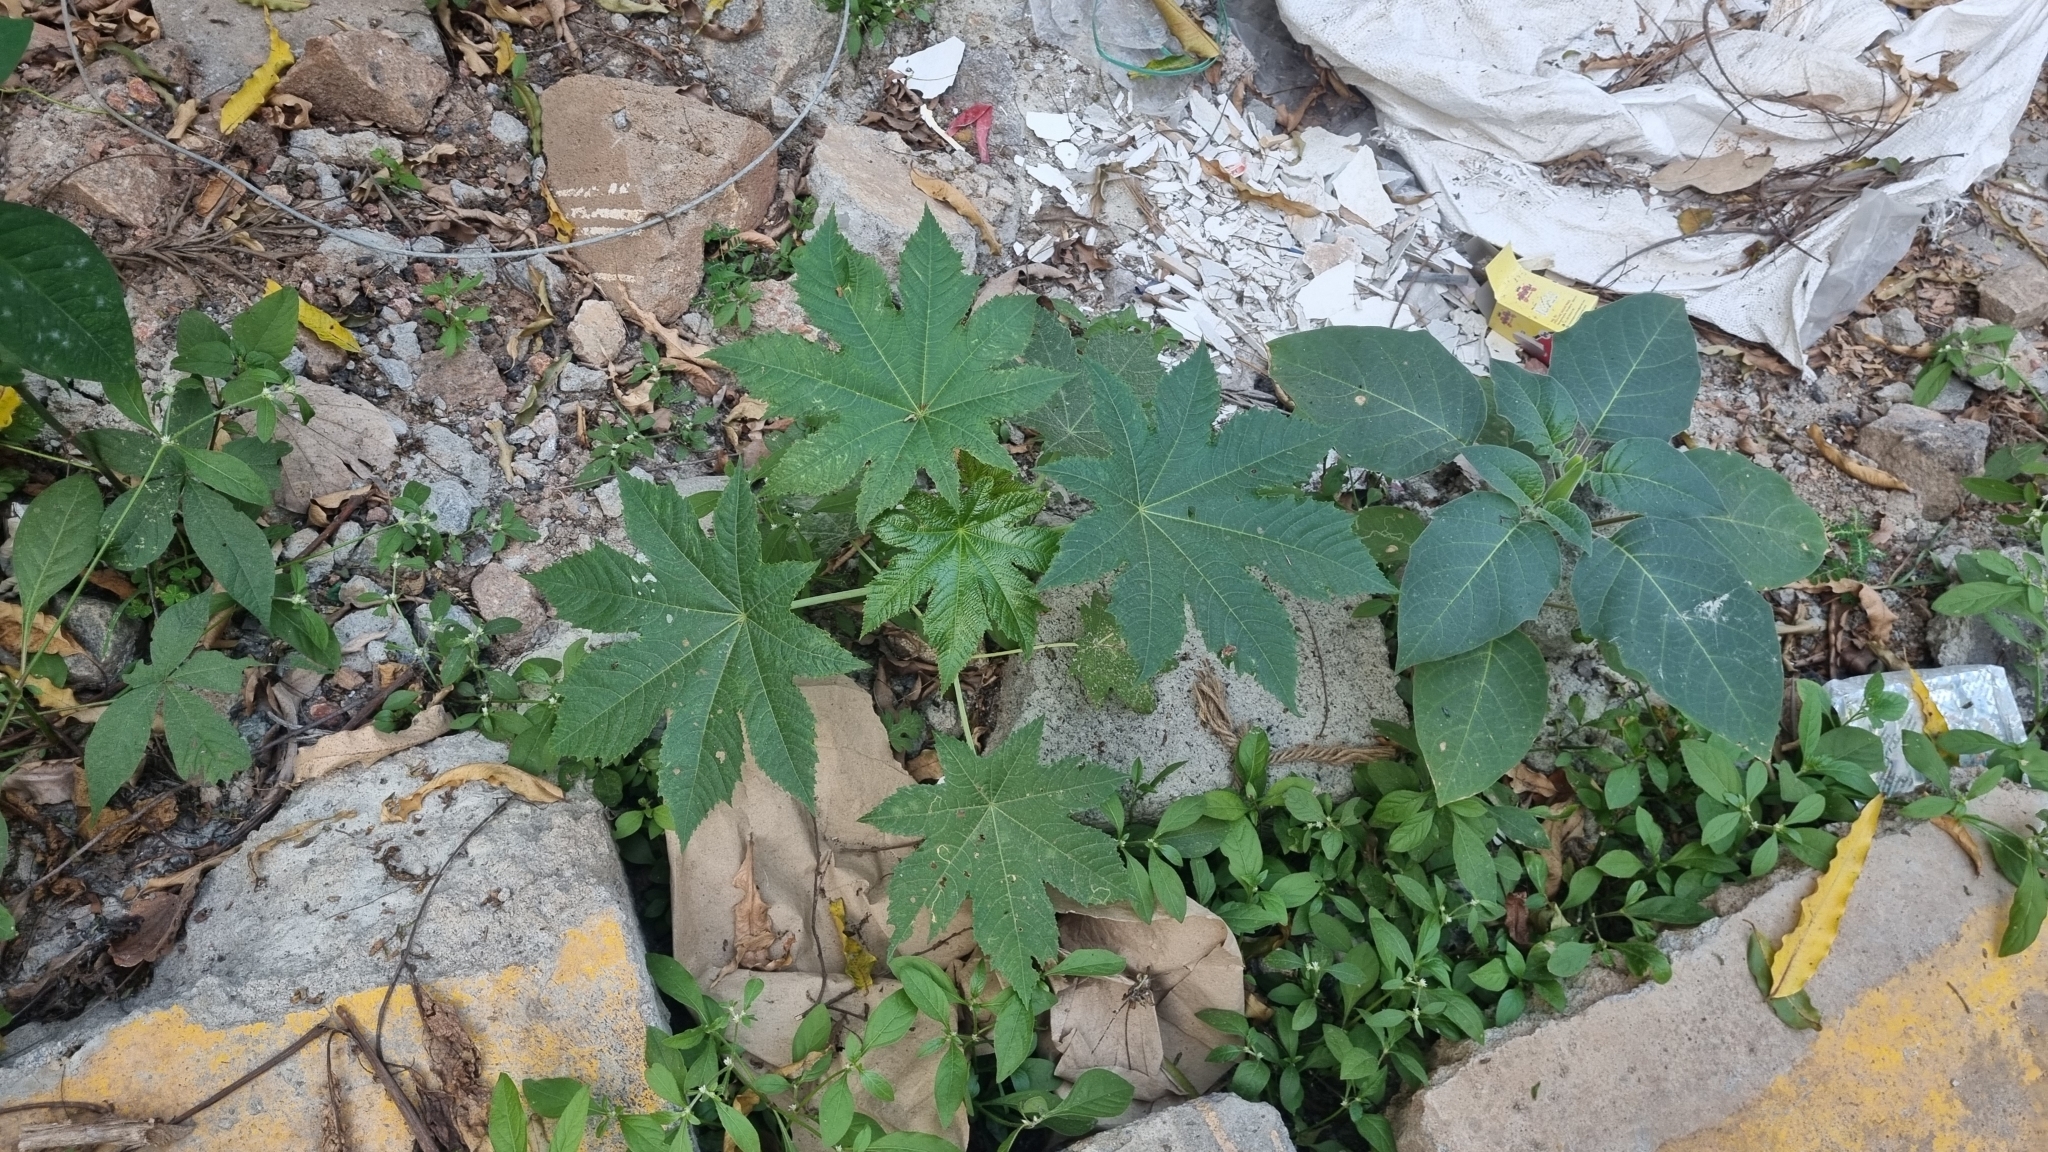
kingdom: Plantae
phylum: Tracheophyta
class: Magnoliopsida
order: Malpighiales
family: Euphorbiaceae
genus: Ricinus
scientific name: Ricinus communis
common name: Castor-oil-plant
